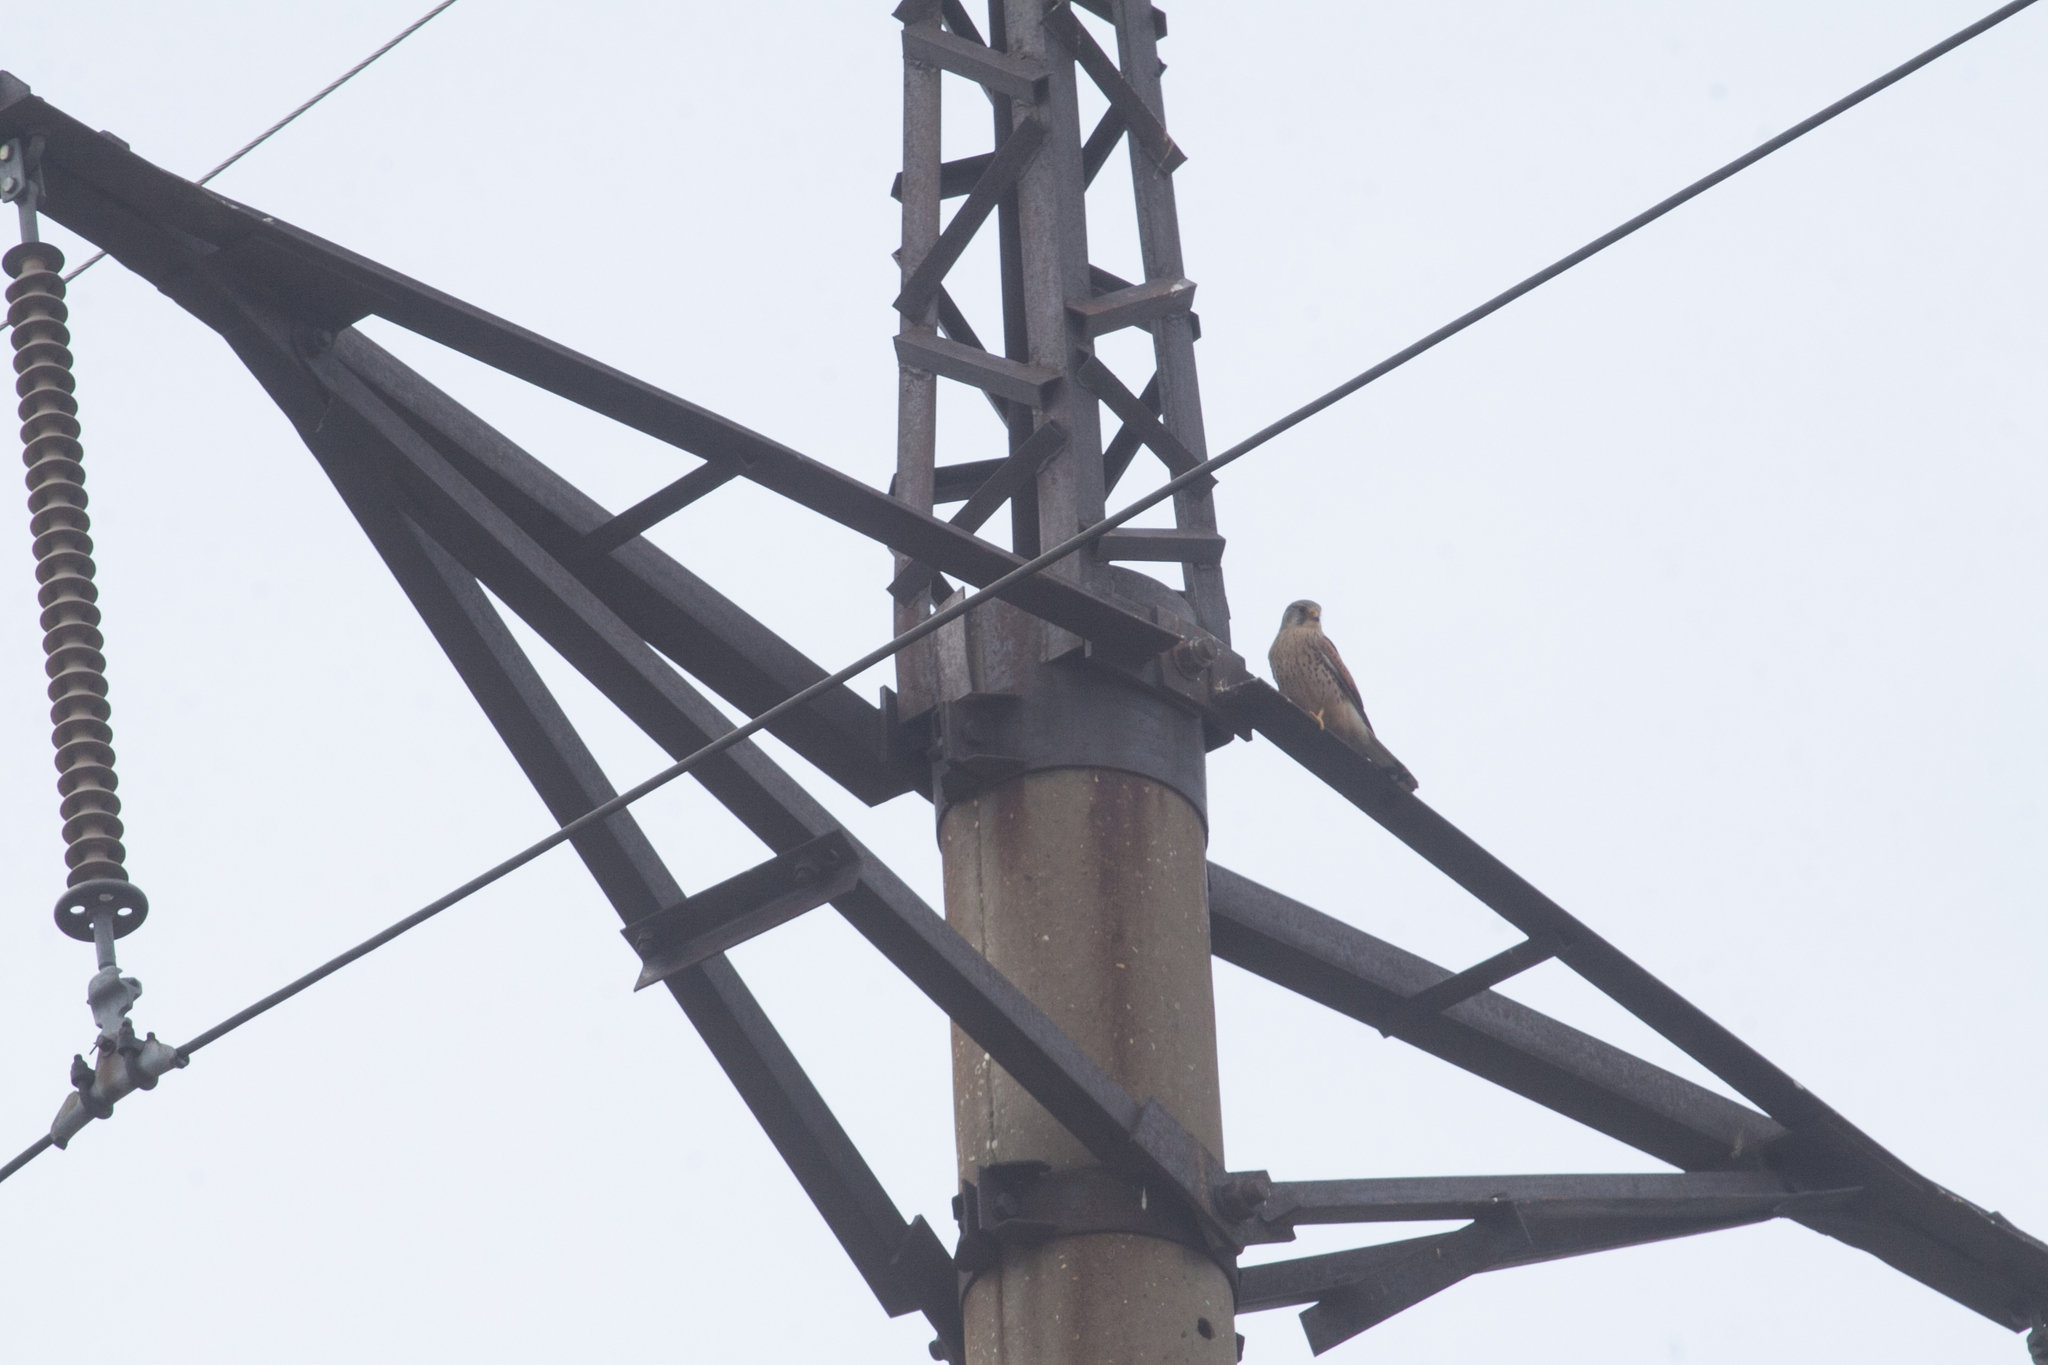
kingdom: Animalia
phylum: Chordata
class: Aves
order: Falconiformes
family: Falconidae
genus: Falco
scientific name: Falco tinnunculus
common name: Common kestrel
